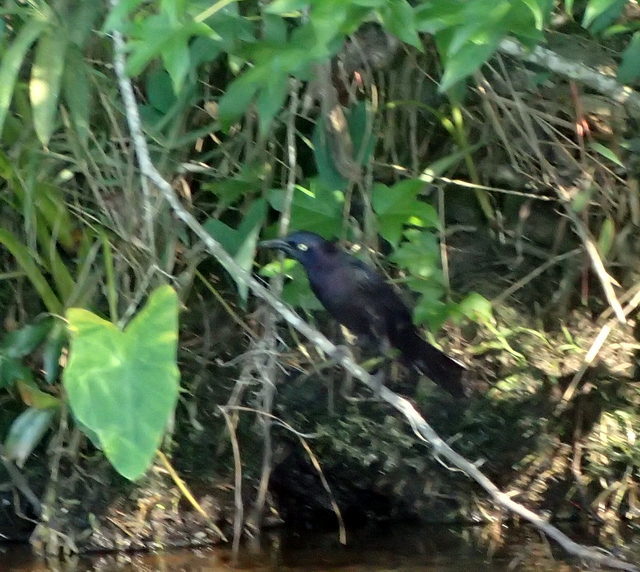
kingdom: Animalia
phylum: Chordata
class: Aves
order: Passeriformes
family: Icteridae
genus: Quiscalus
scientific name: Quiscalus quiscula
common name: Common grackle
